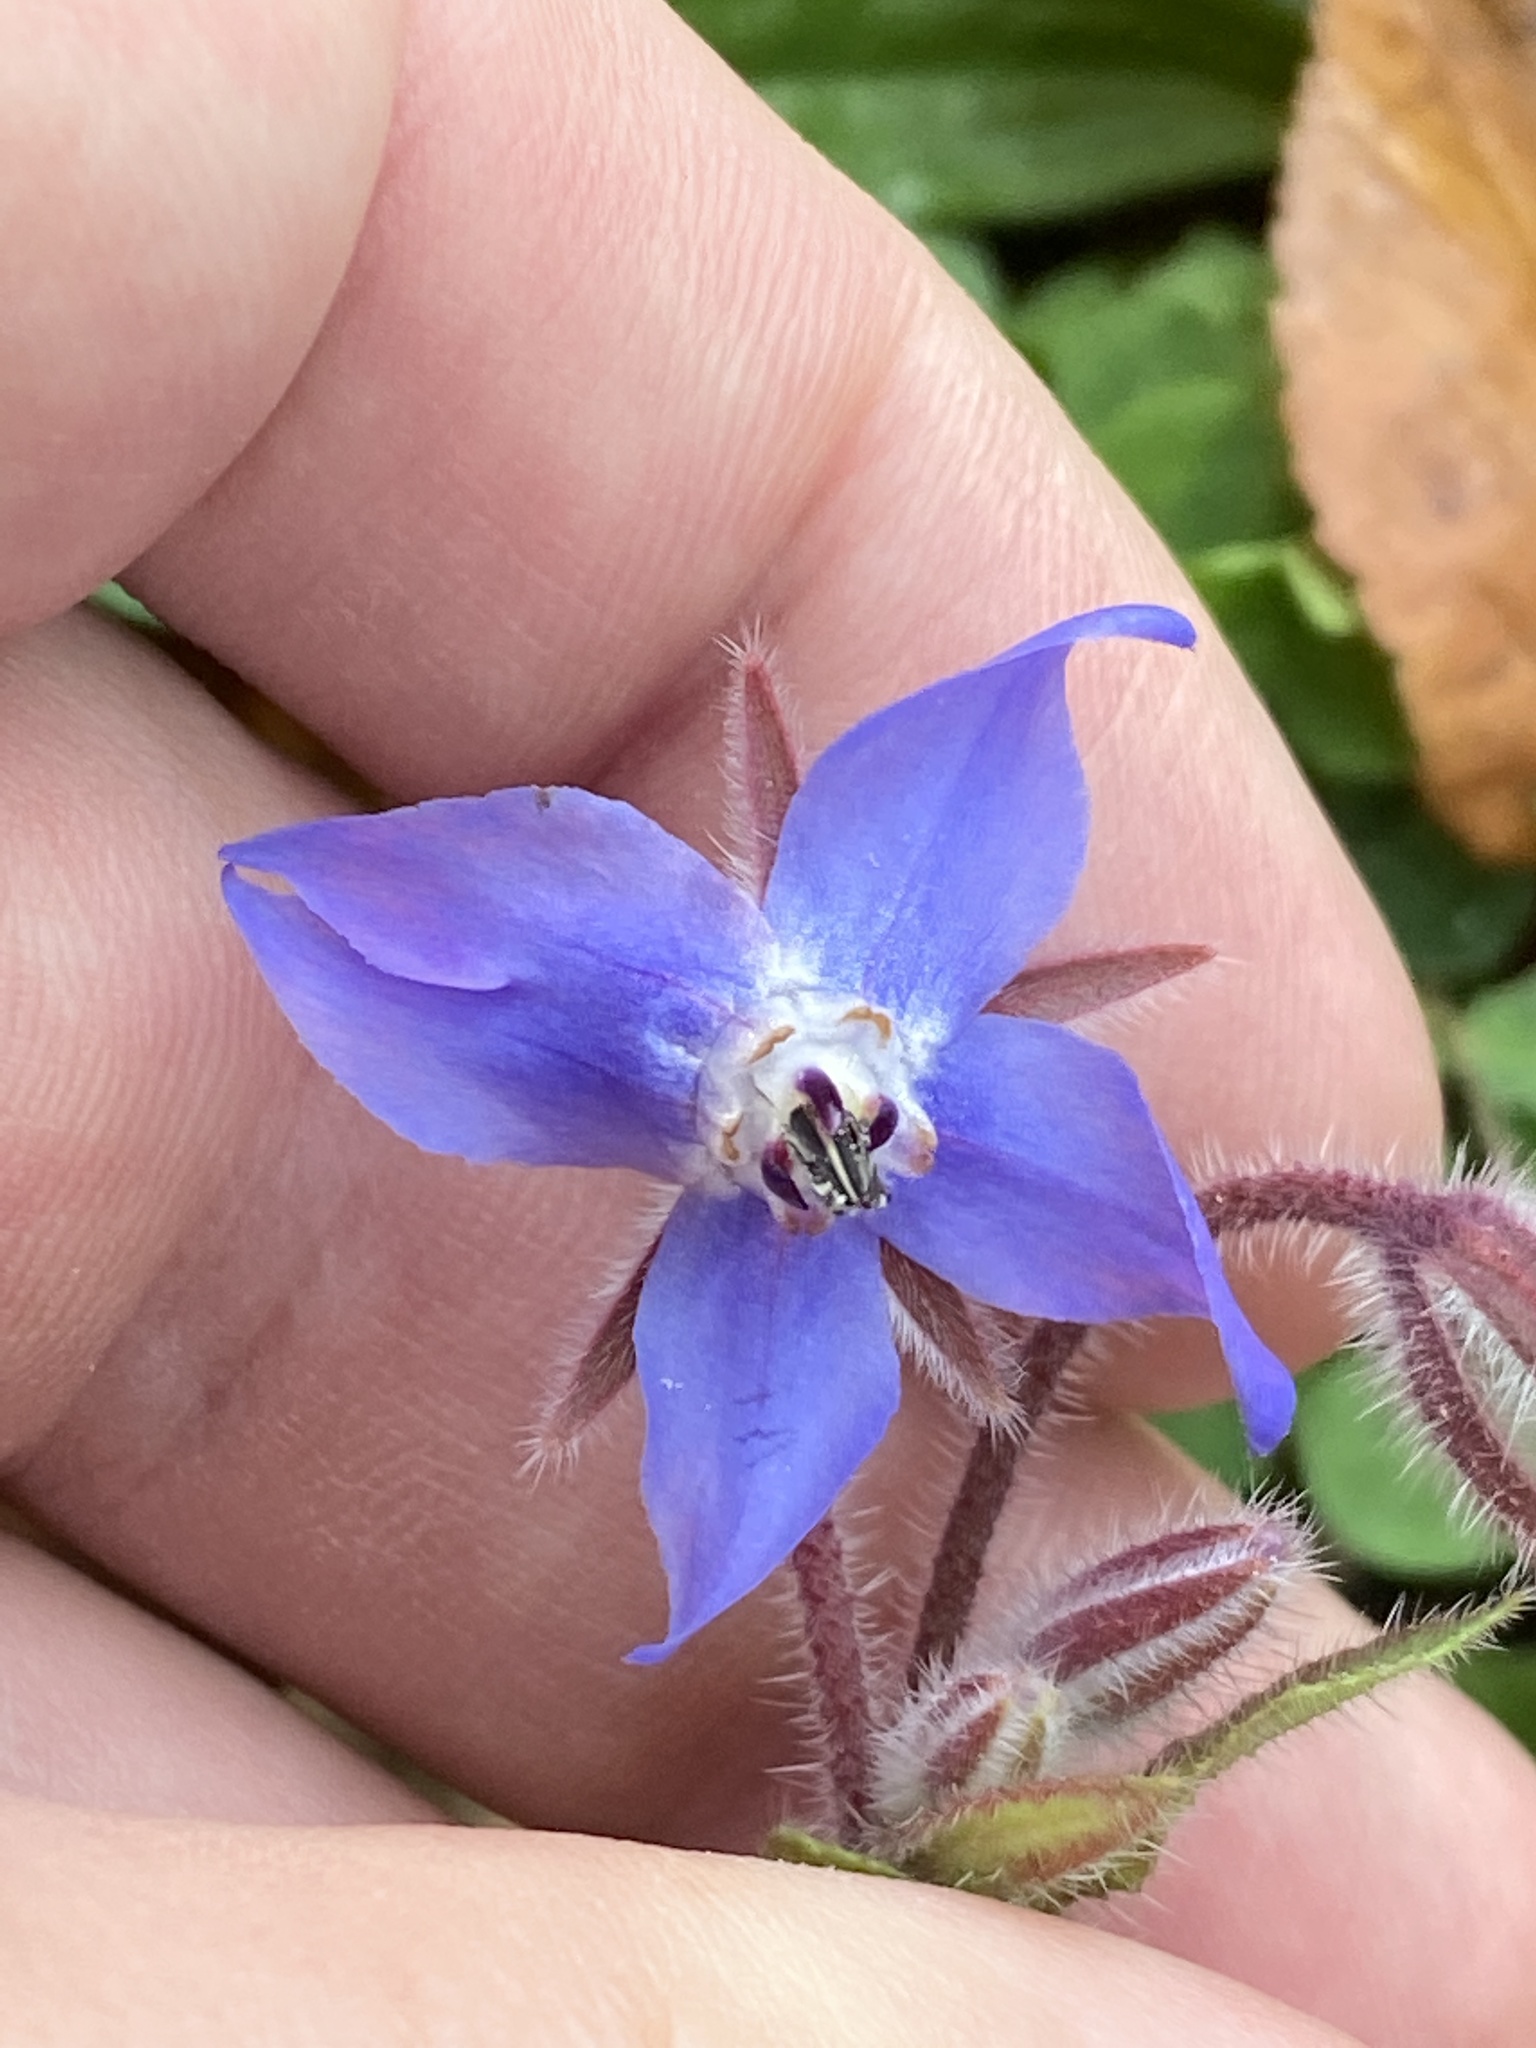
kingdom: Plantae
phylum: Tracheophyta
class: Magnoliopsida
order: Boraginales
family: Boraginaceae
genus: Borago
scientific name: Borago officinalis
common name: Borage
